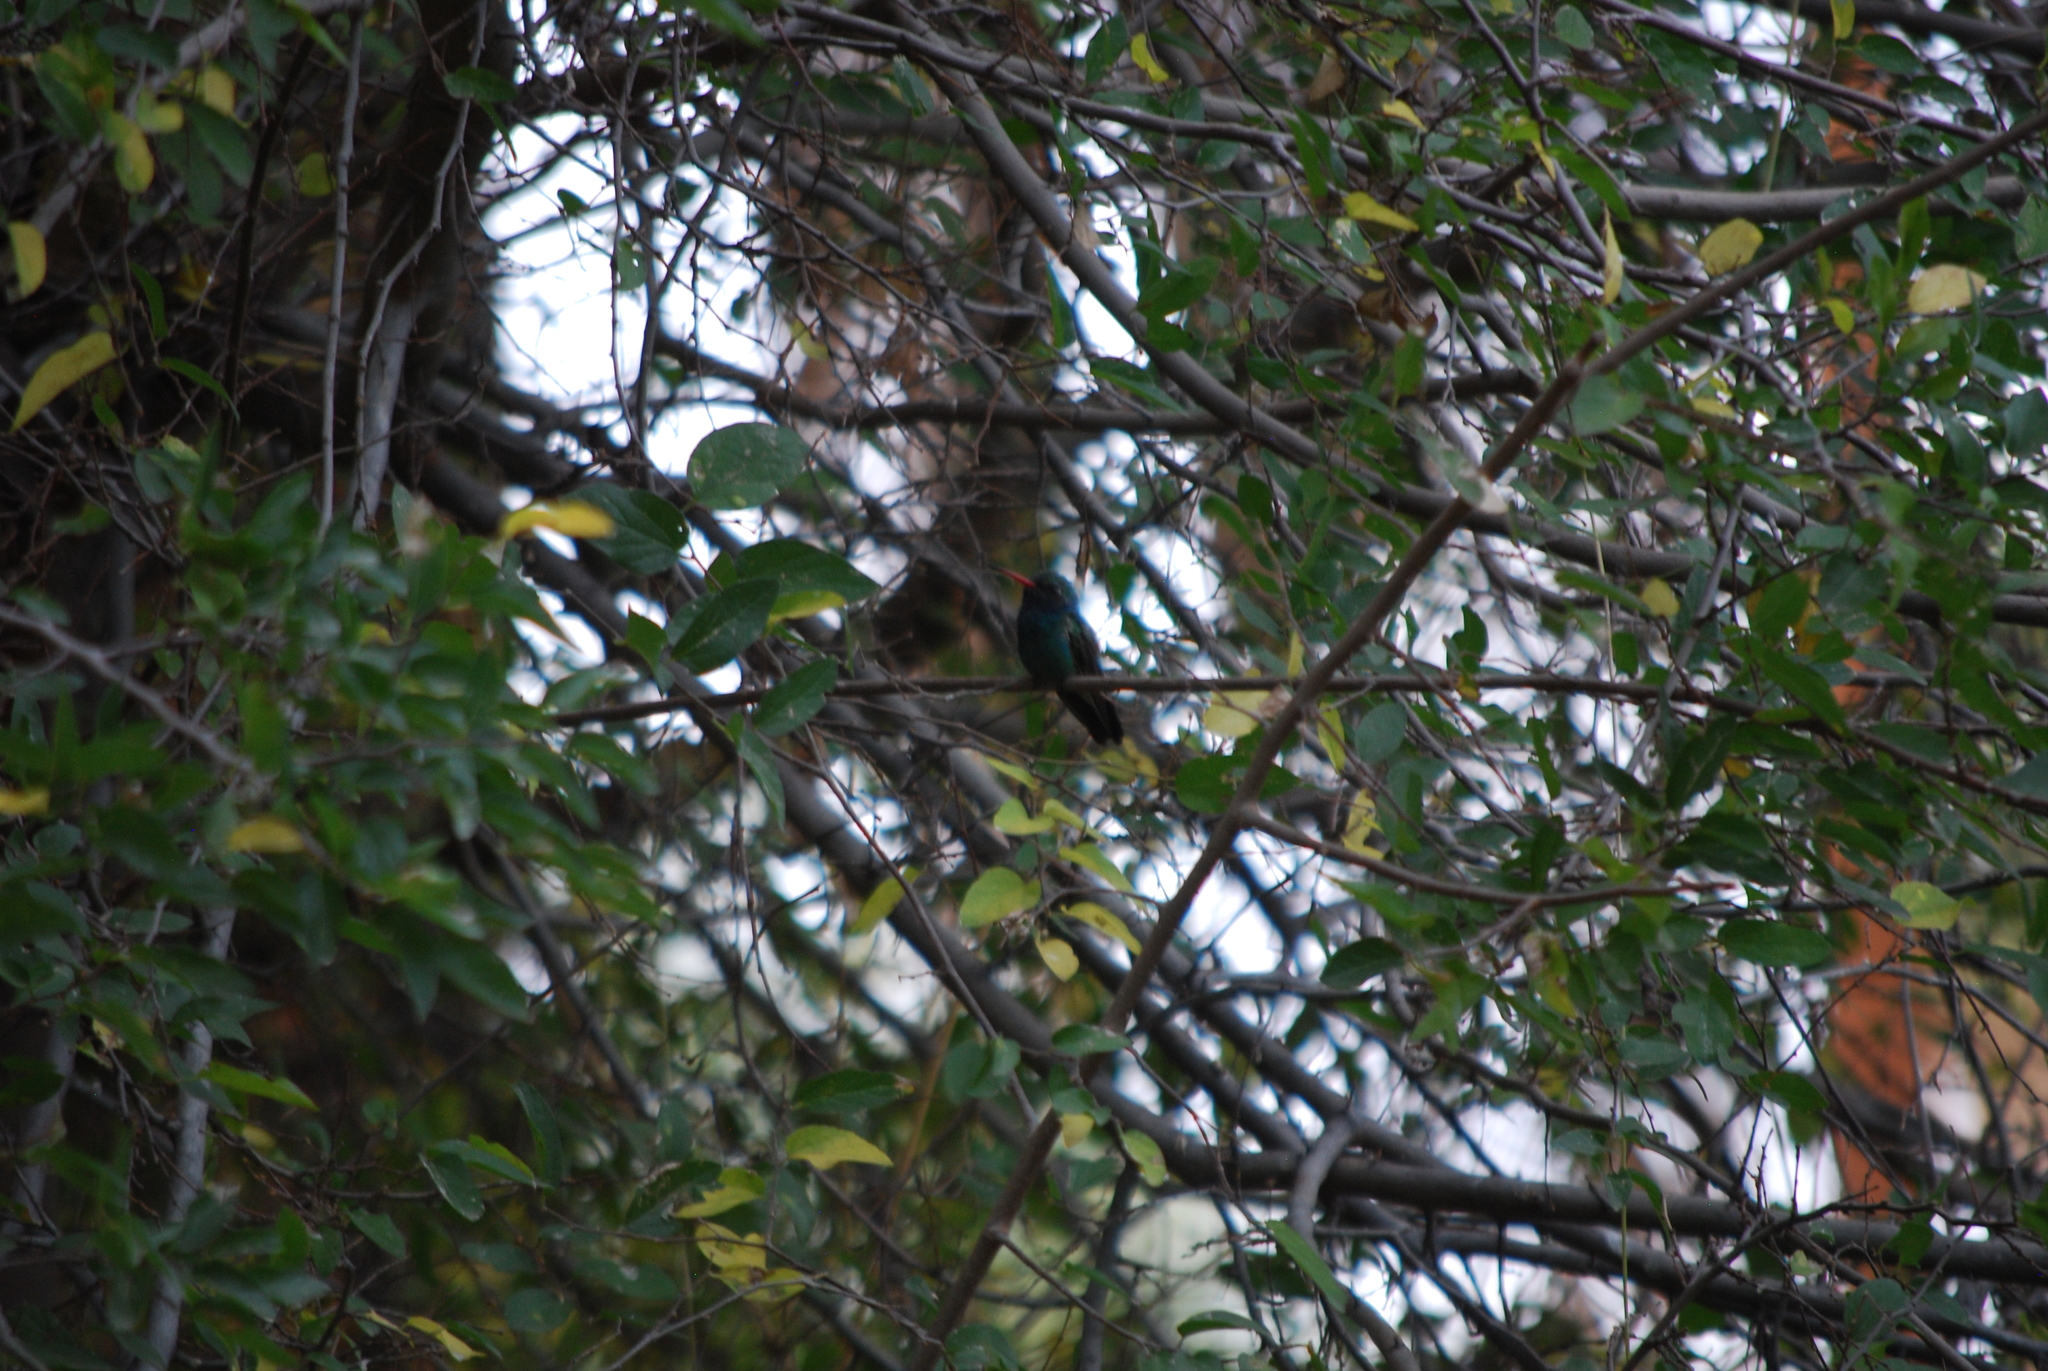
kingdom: Animalia
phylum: Chordata
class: Aves
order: Apodiformes
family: Trochilidae
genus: Cynanthus
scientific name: Cynanthus latirostris
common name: Broad-billed hummingbird
